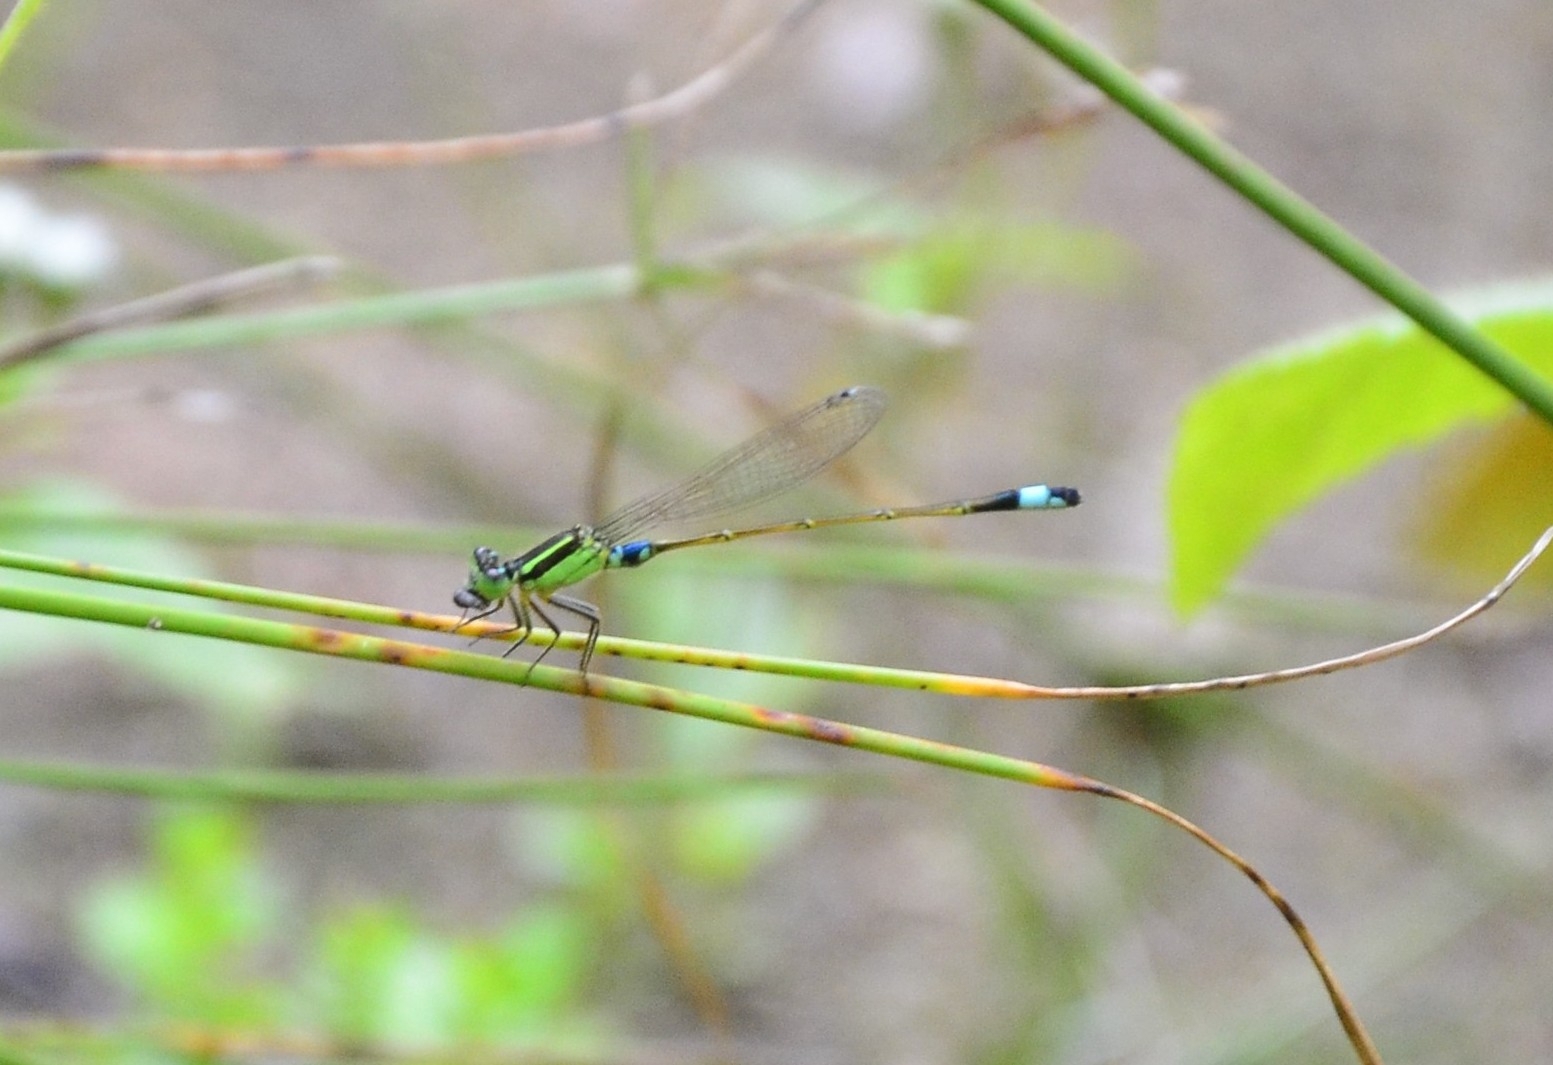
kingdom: Animalia
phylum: Arthropoda
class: Insecta
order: Odonata
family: Coenagrionidae
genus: Ischnura
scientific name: Ischnura senegalensis
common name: Tropical bluetail
